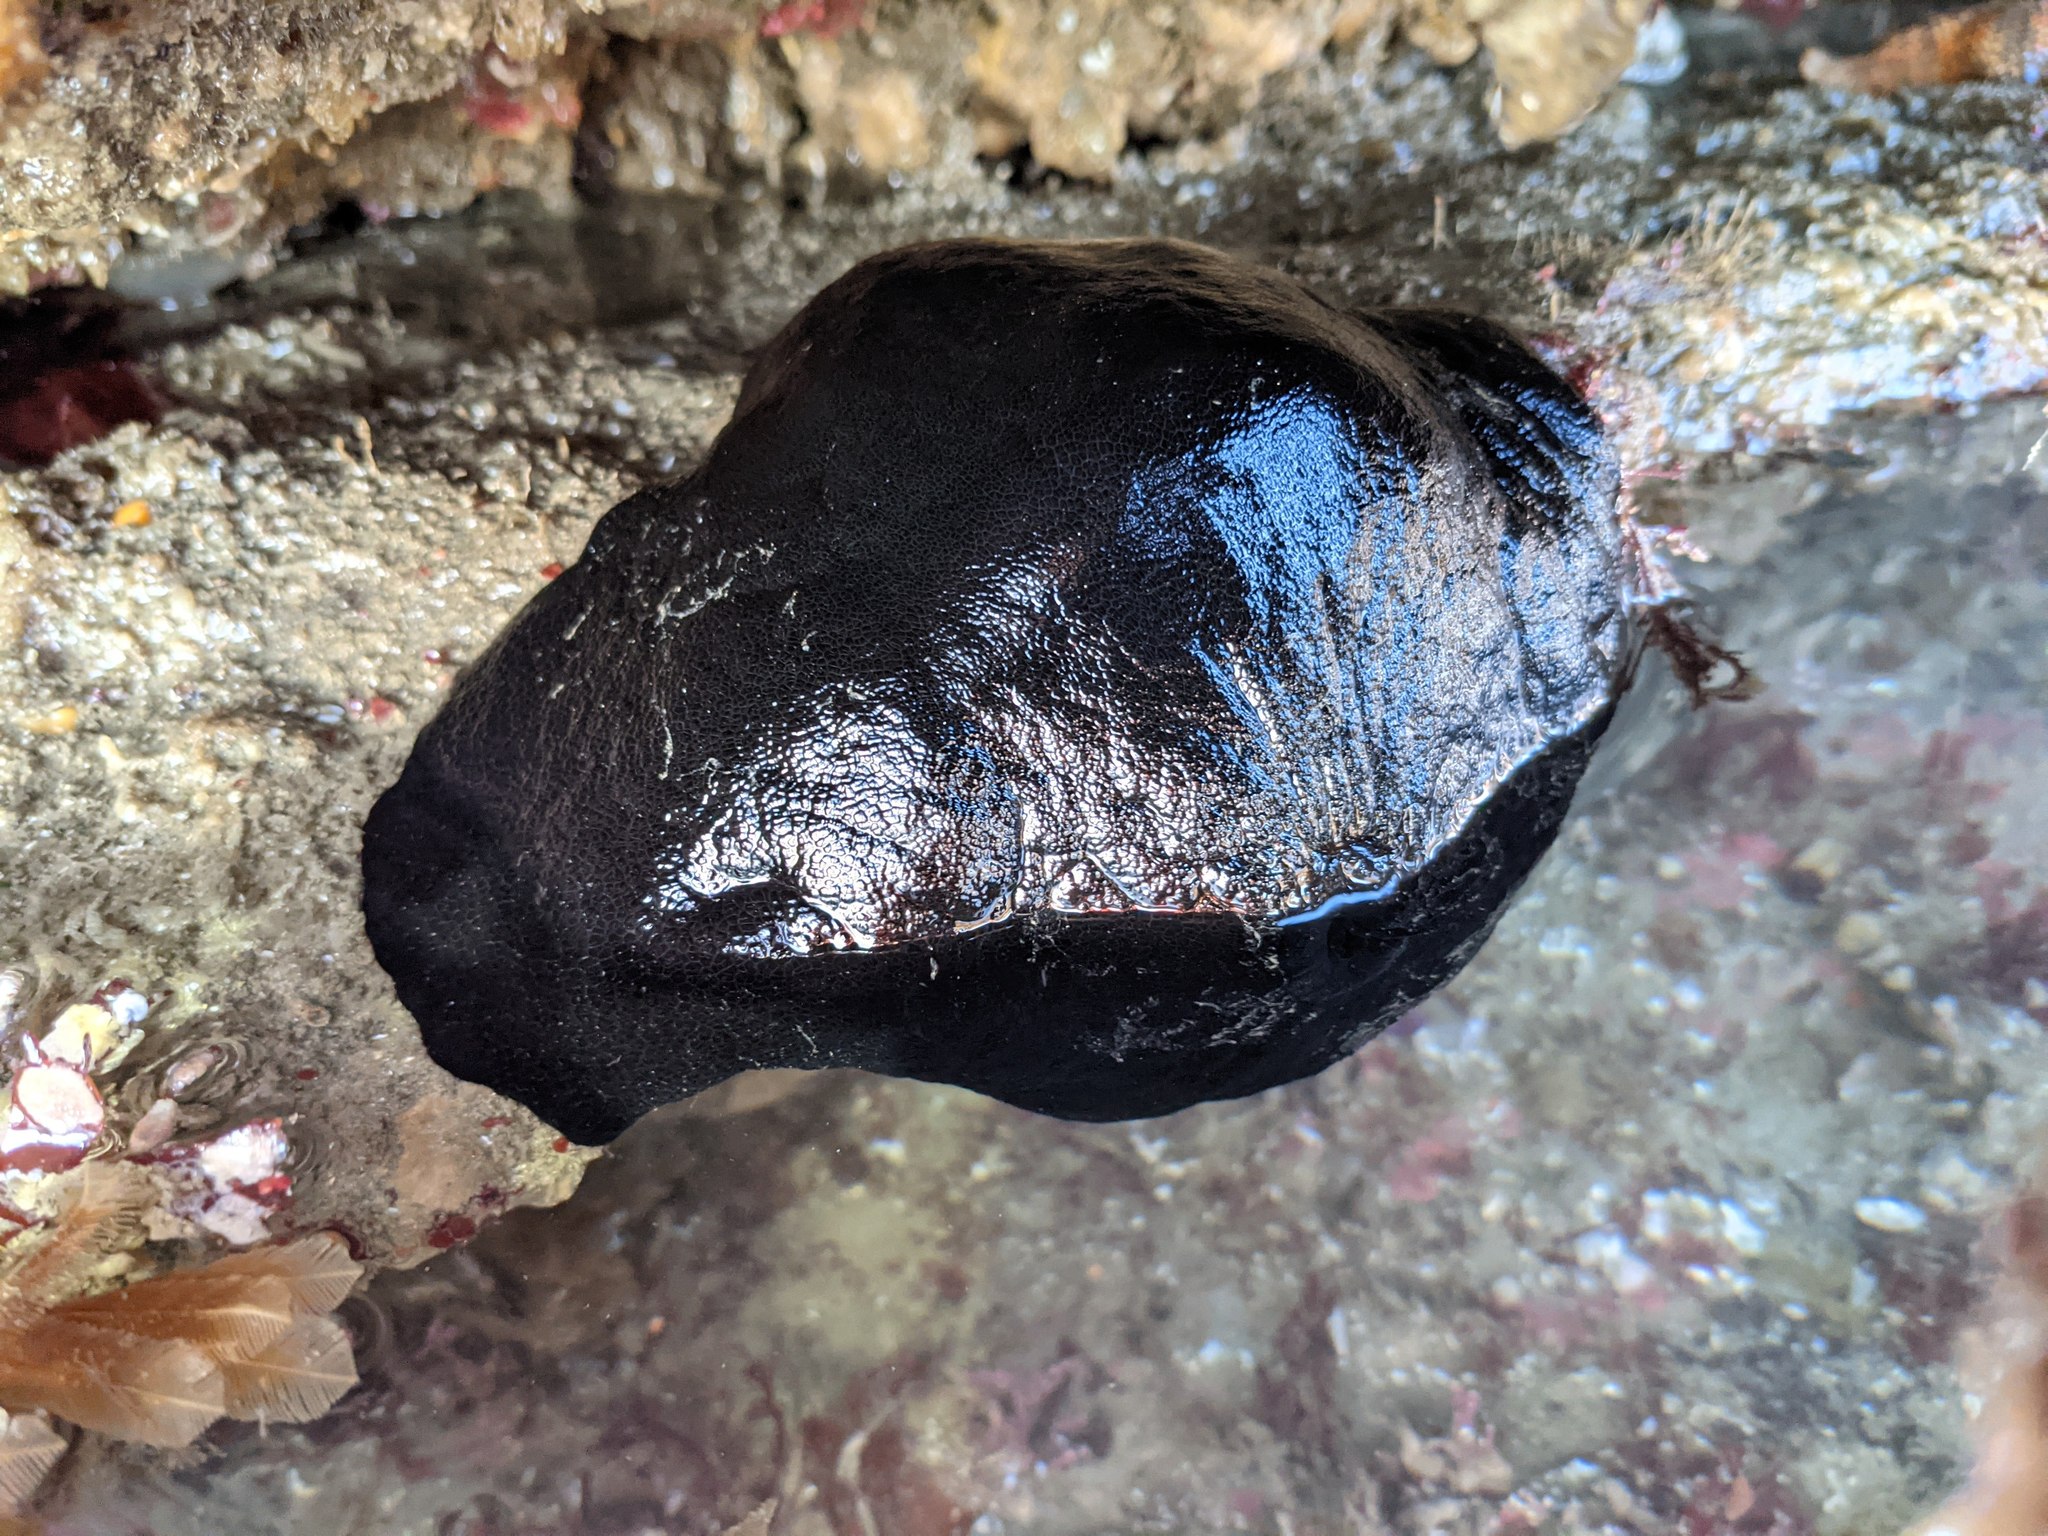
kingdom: Animalia
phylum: Mollusca
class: Gastropoda
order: Lepetellida
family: Fissurellidae
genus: Megathura
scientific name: Megathura crenulata
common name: Giant keyhole limpet
